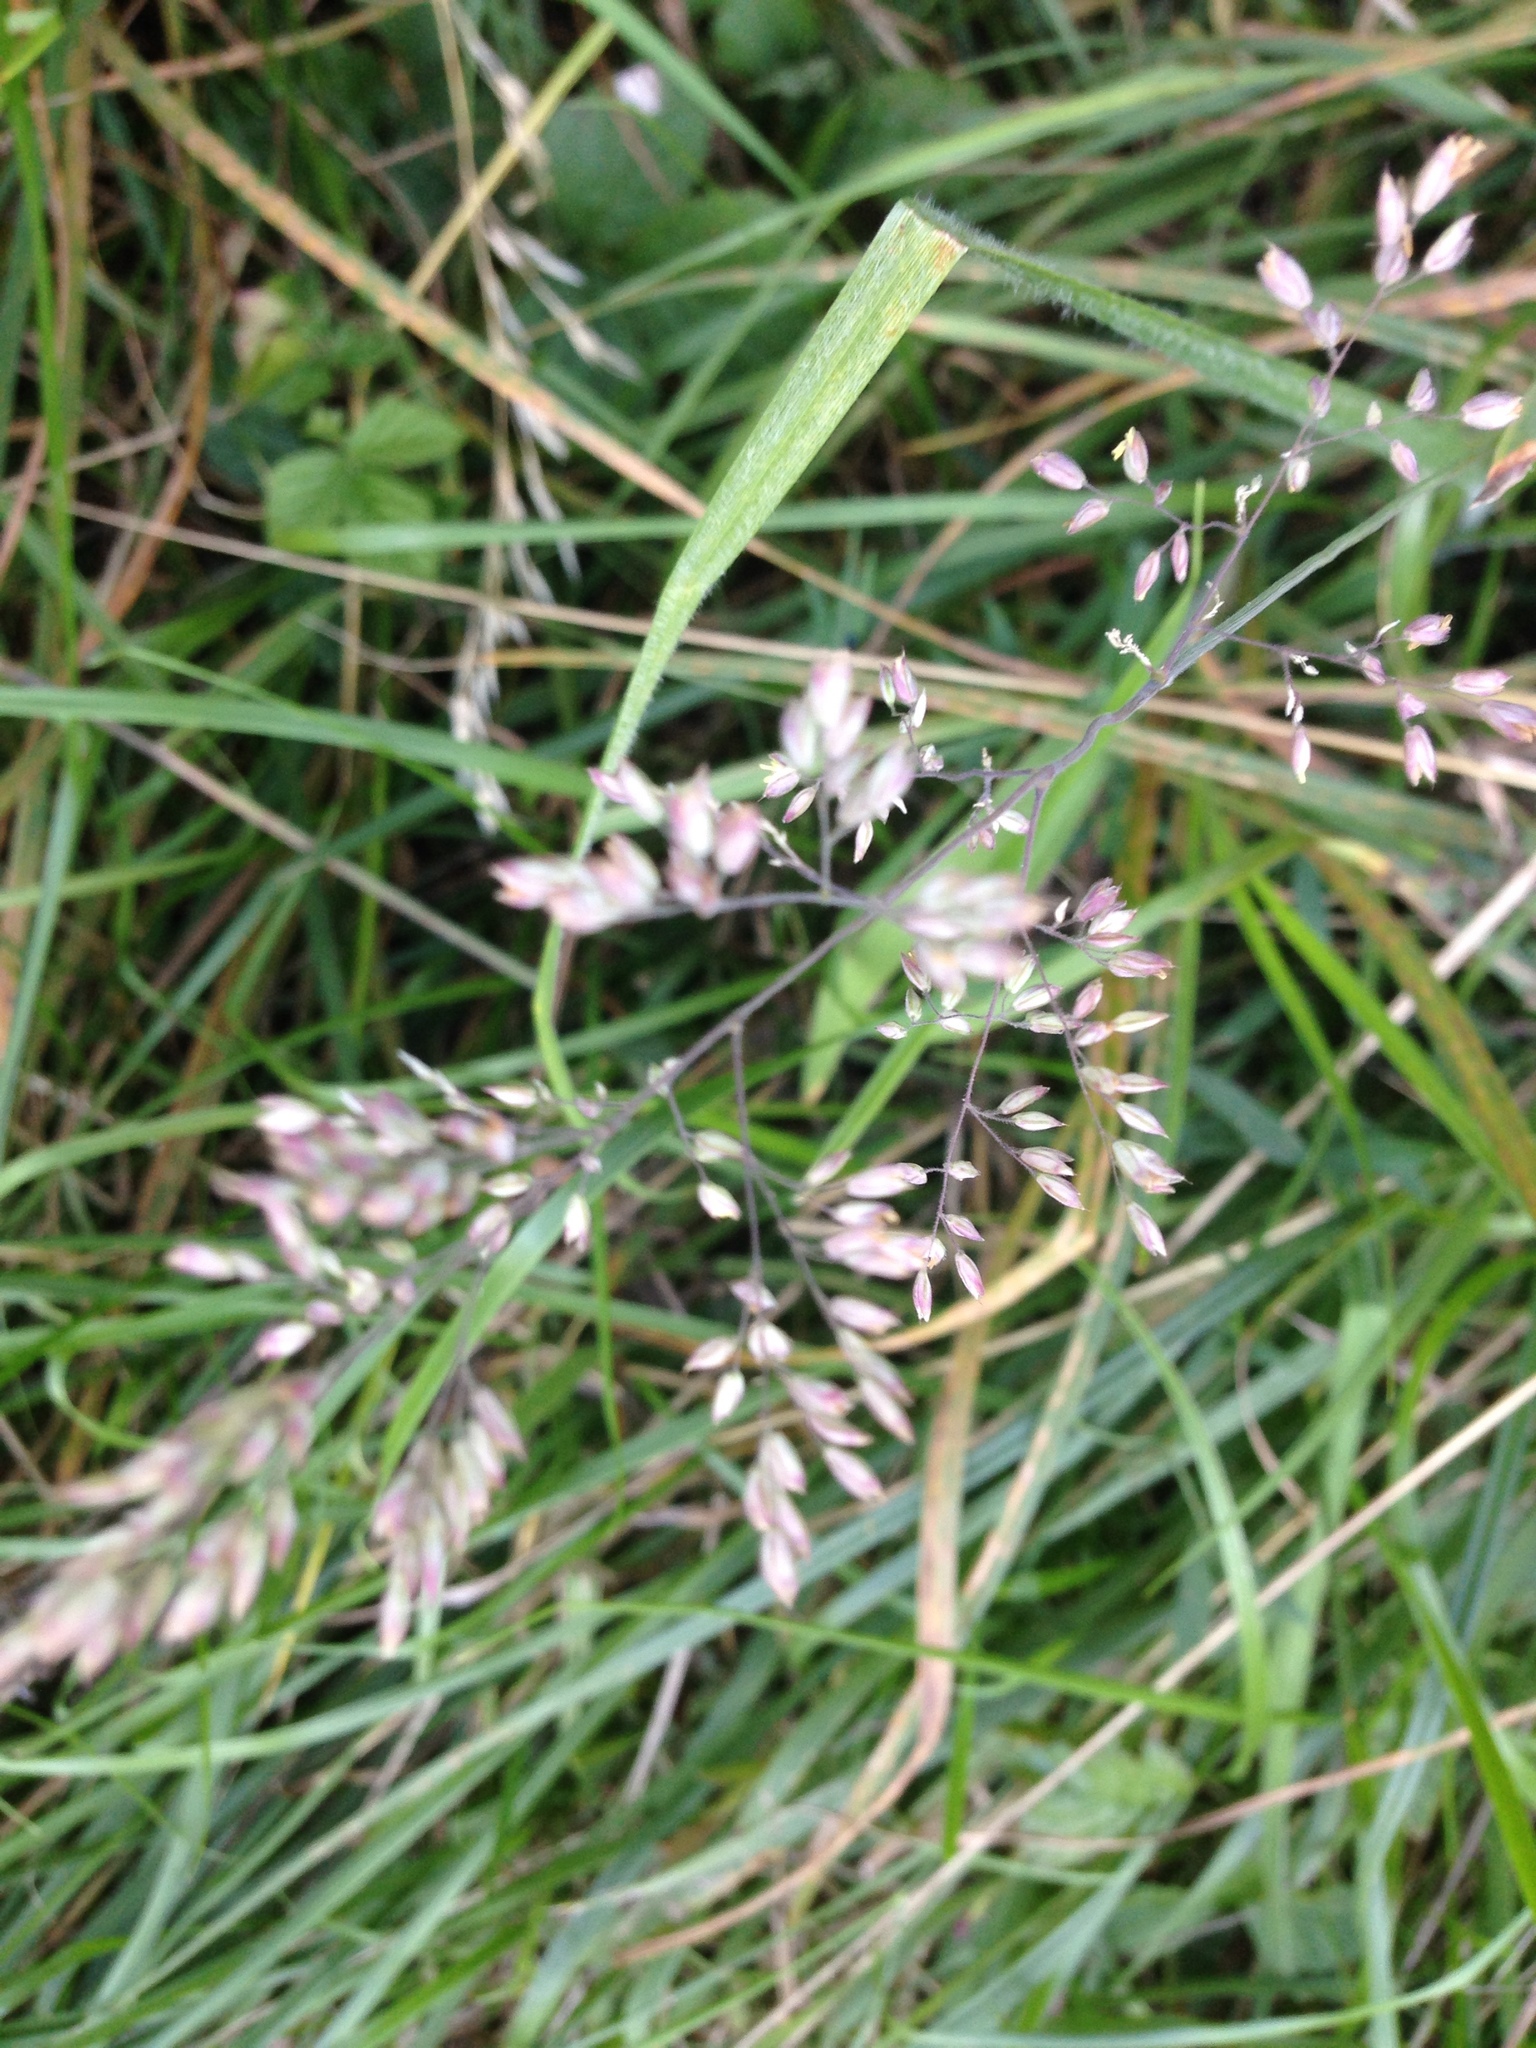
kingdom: Plantae
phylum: Tracheophyta
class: Liliopsida
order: Poales
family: Poaceae
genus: Holcus
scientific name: Holcus lanatus
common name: Yorkshire-fog
